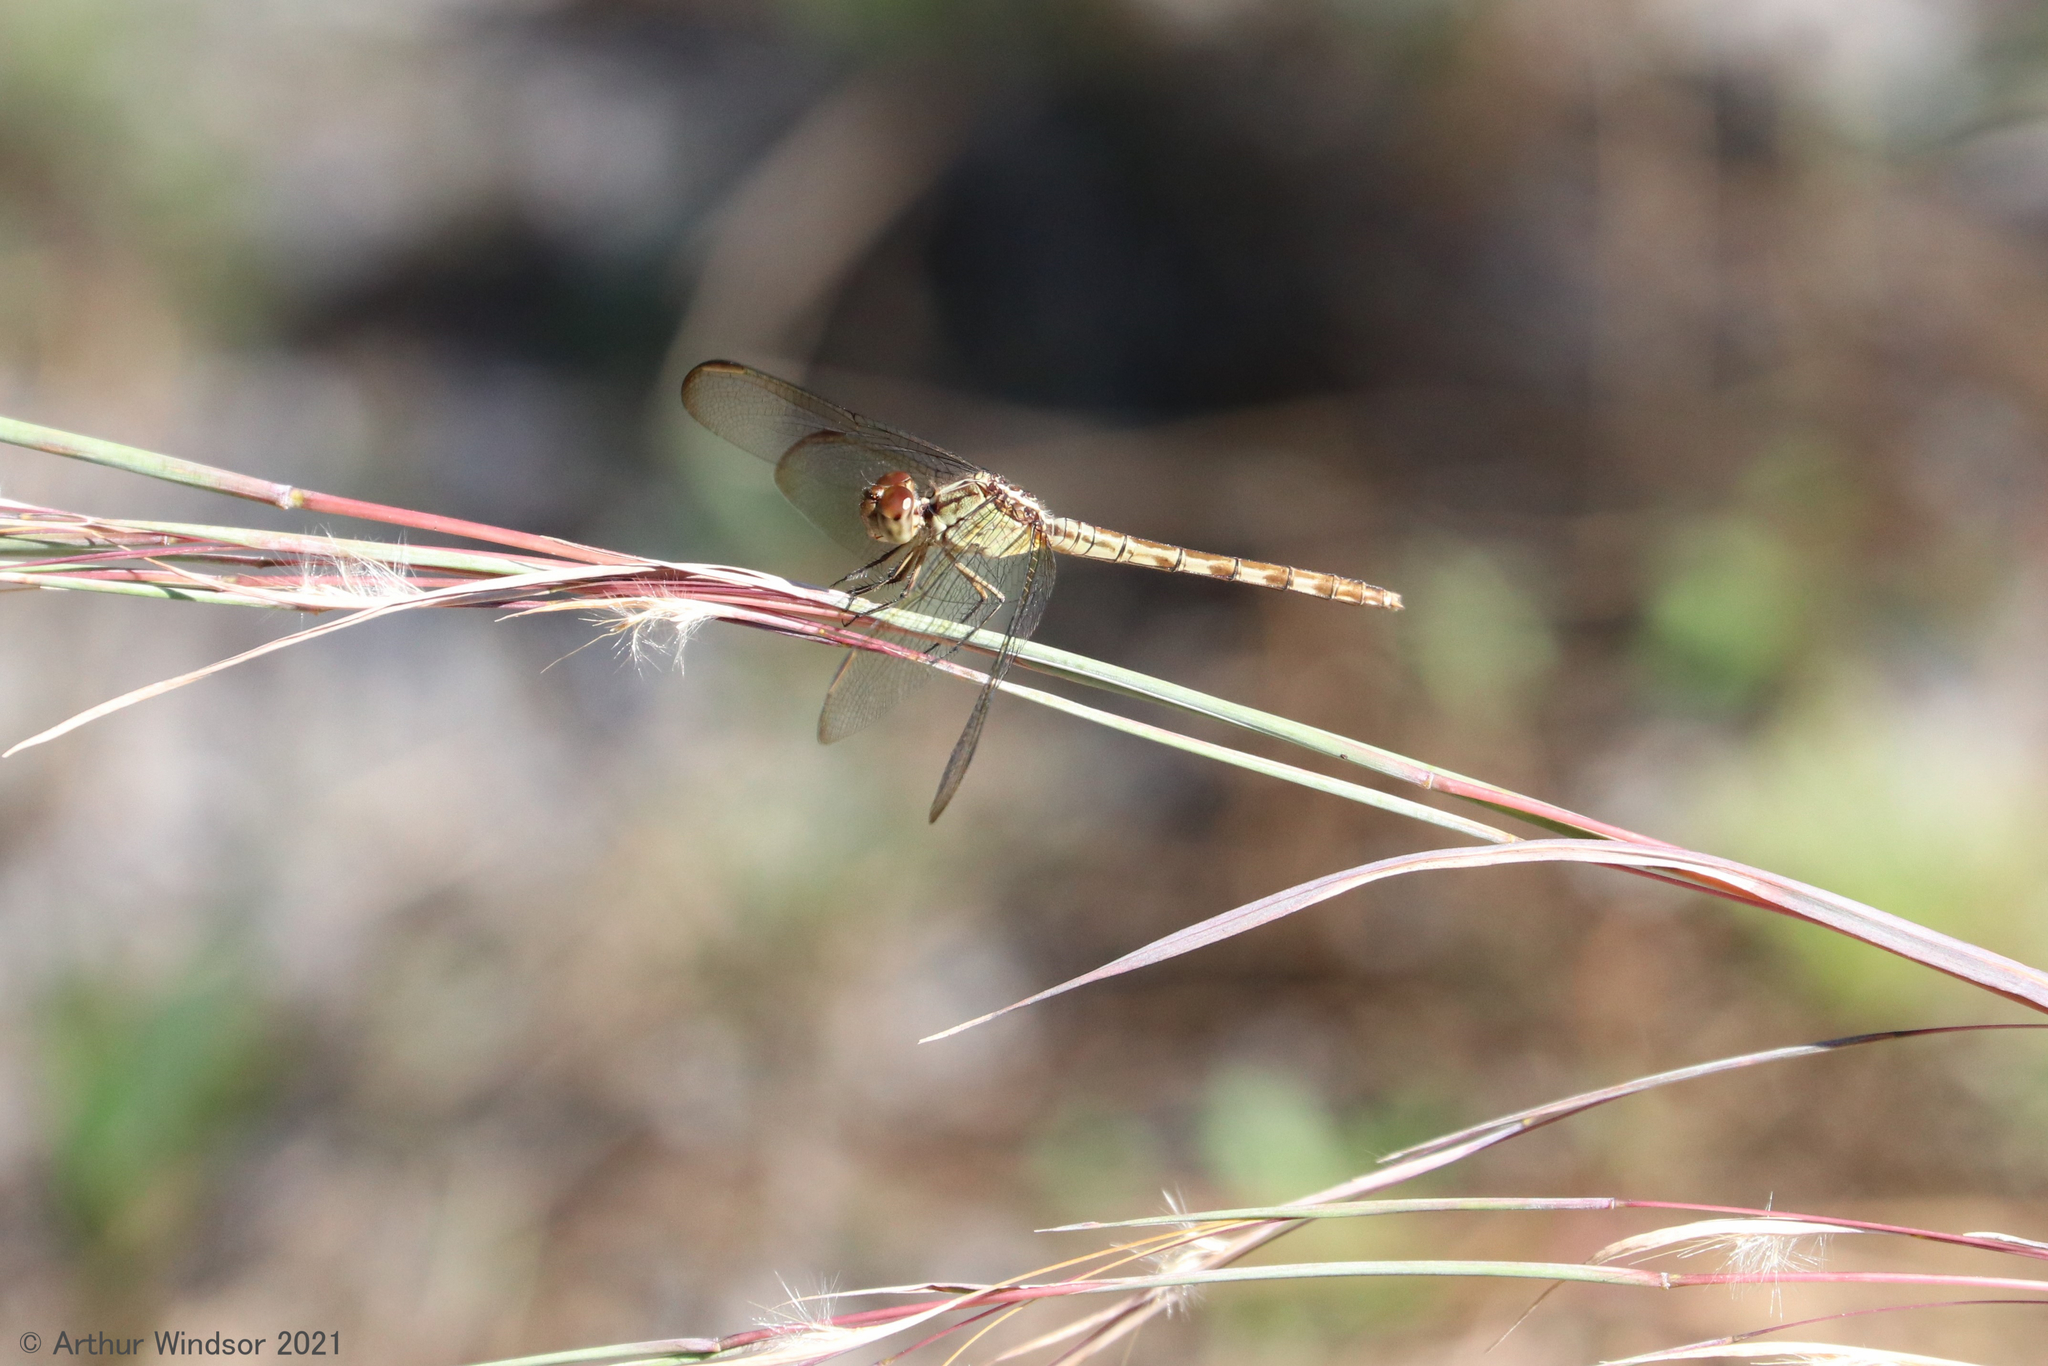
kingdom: Animalia
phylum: Arthropoda
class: Insecta
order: Odonata
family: Libellulidae
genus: Erythrodiplax
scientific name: Erythrodiplax umbrata
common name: Band-winged dragonlet
